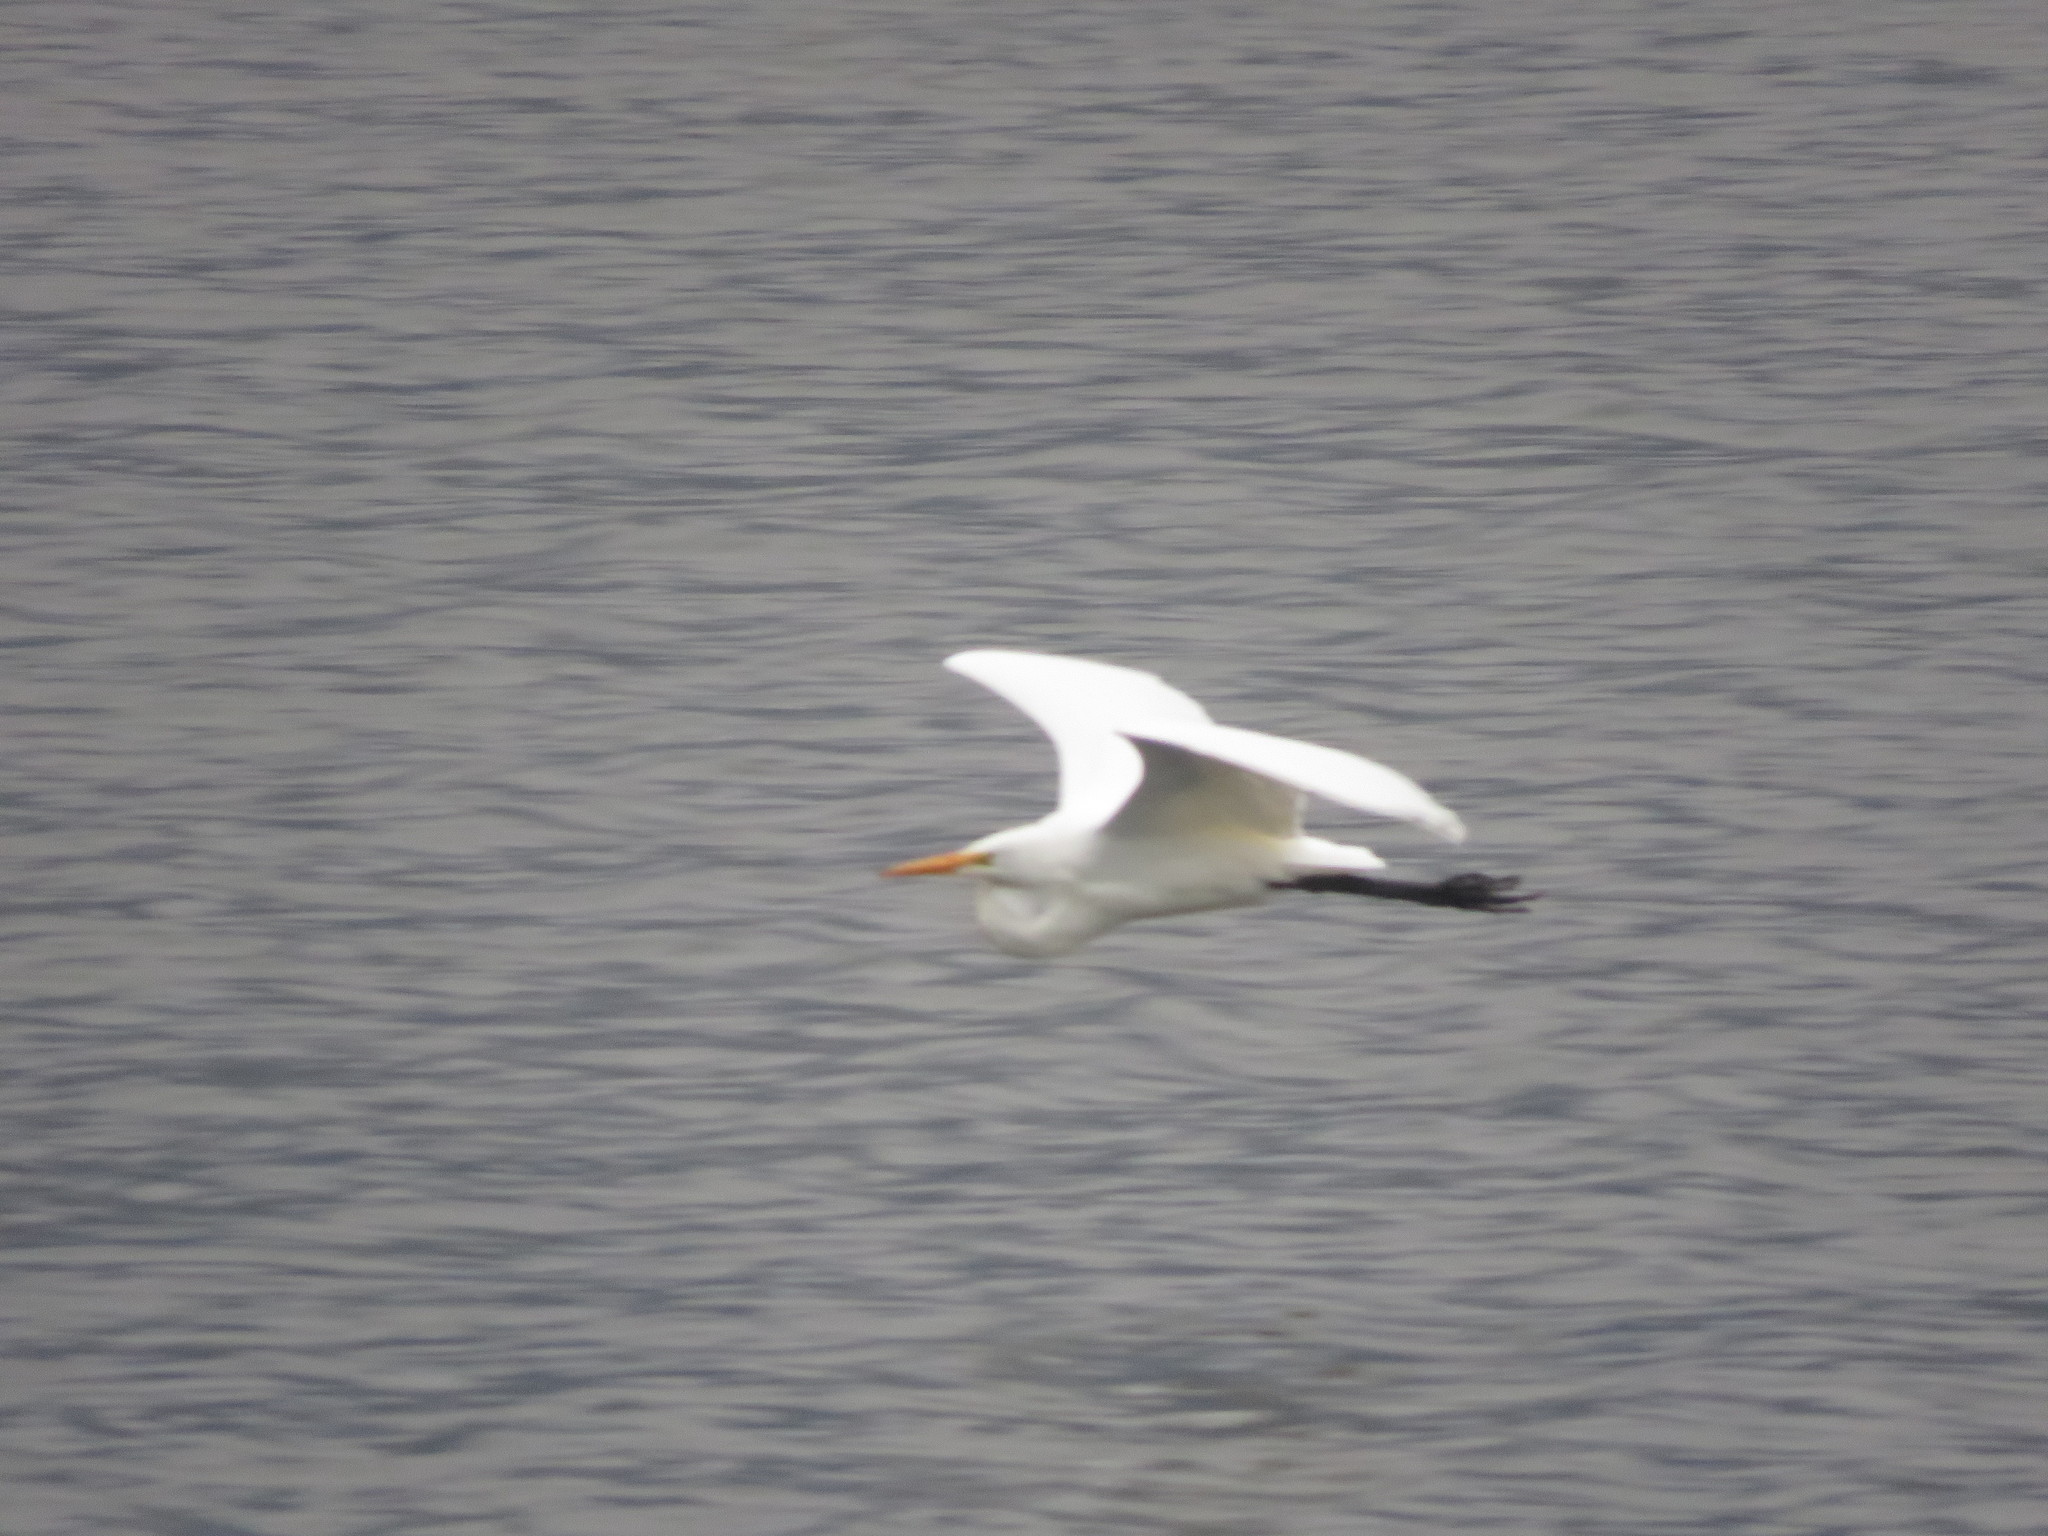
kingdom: Animalia
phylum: Chordata
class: Aves
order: Pelecaniformes
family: Ardeidae
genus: Ardea
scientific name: Ardea alba
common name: Great egret
